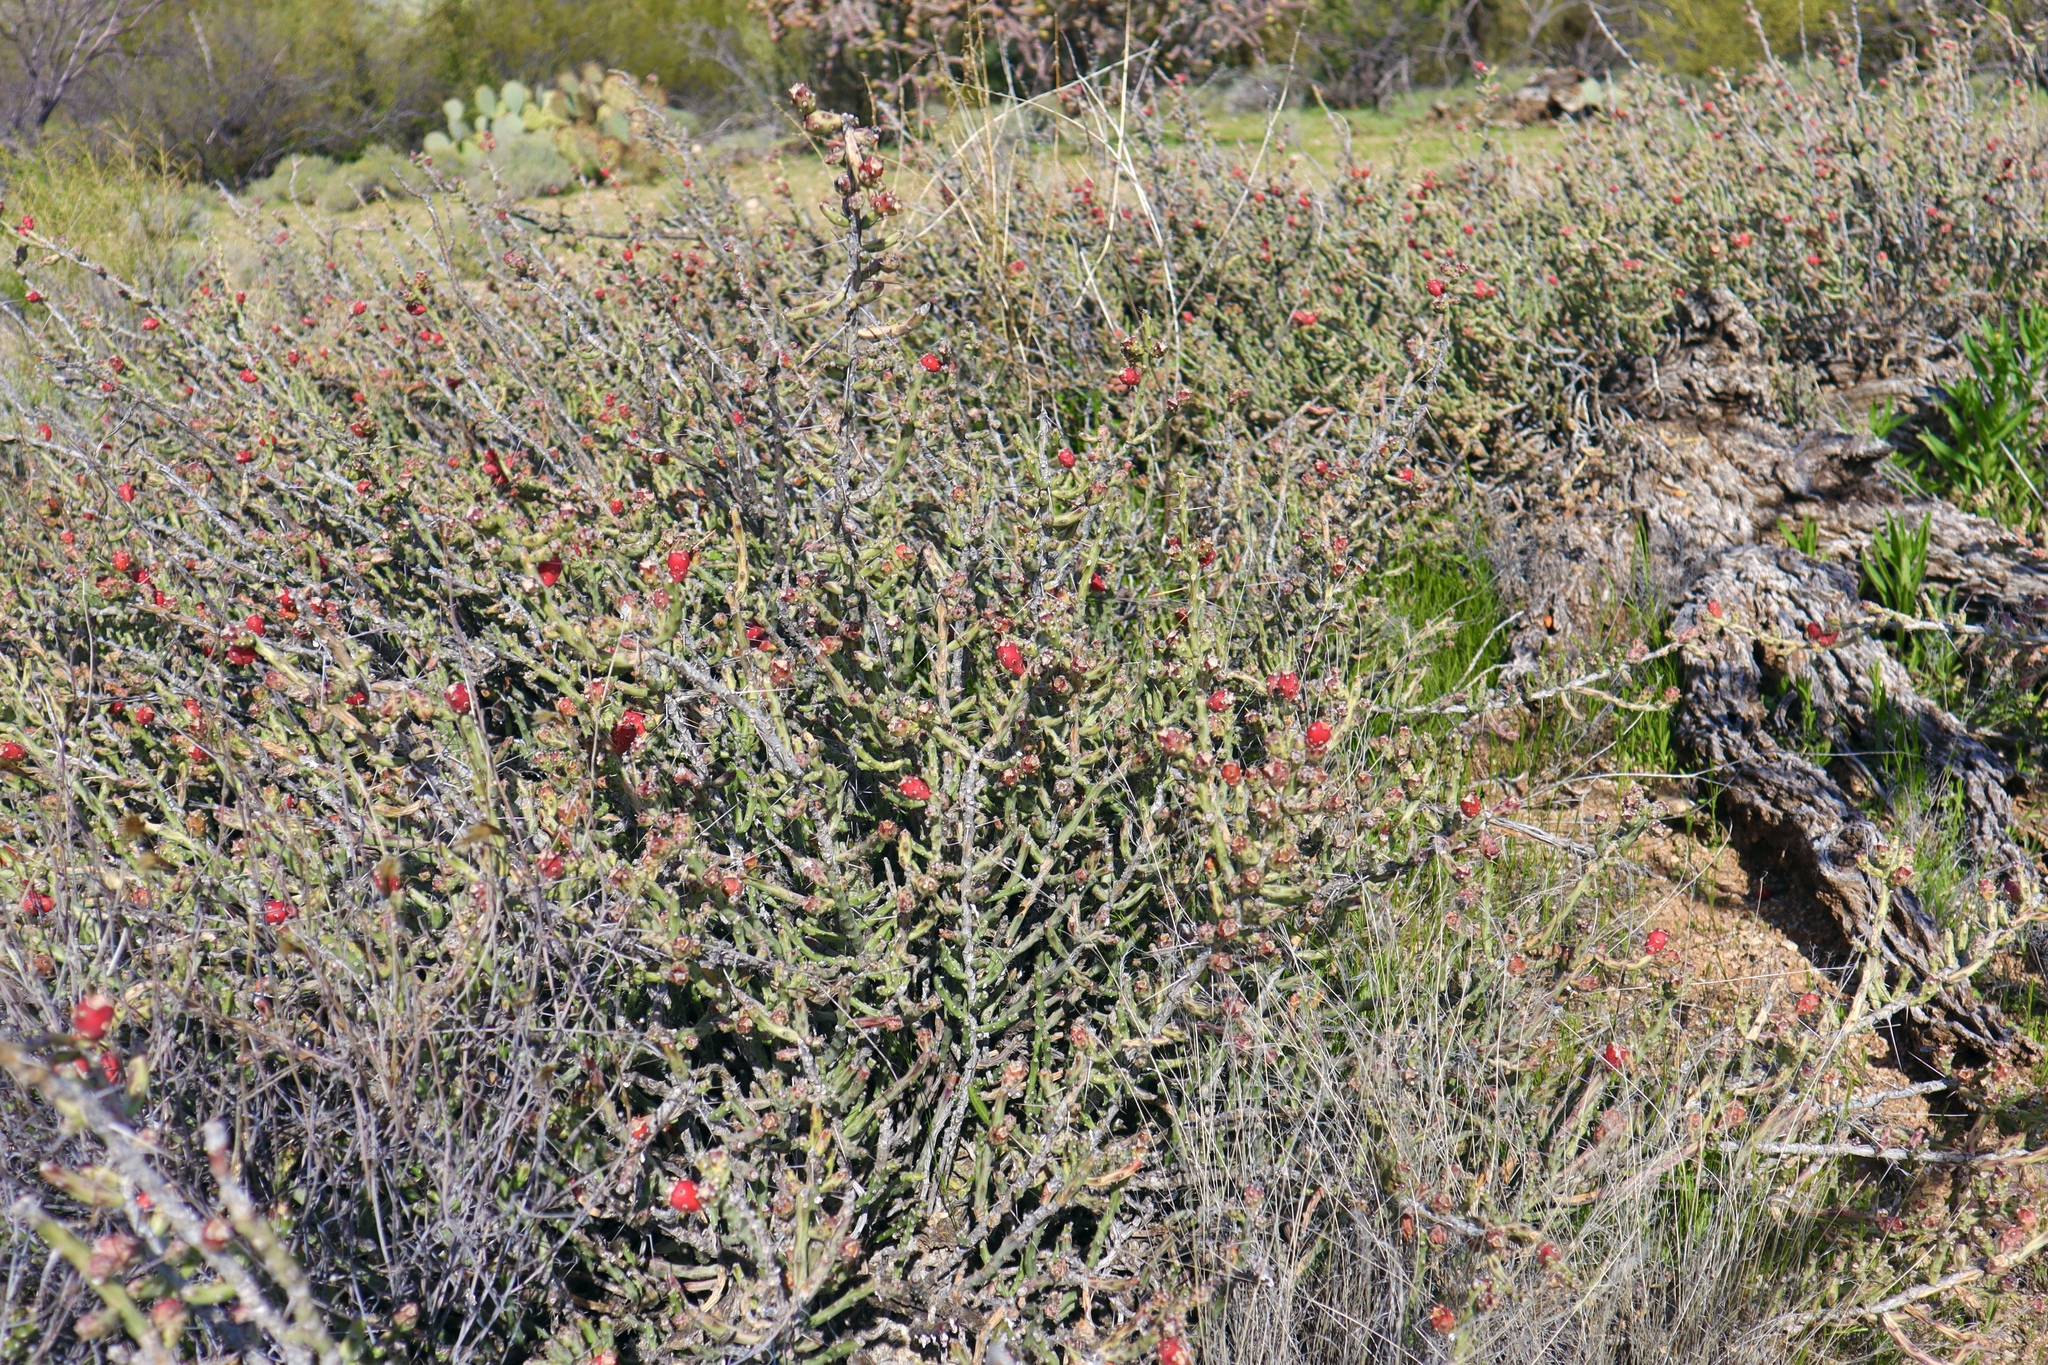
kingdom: Plantae
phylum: Tracheophyta
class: Magnoliopsida
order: Caryophyllales
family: Cactaceae
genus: Cylindropuntia
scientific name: Cylindropuntia leptocaulis
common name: Christmas cactus
